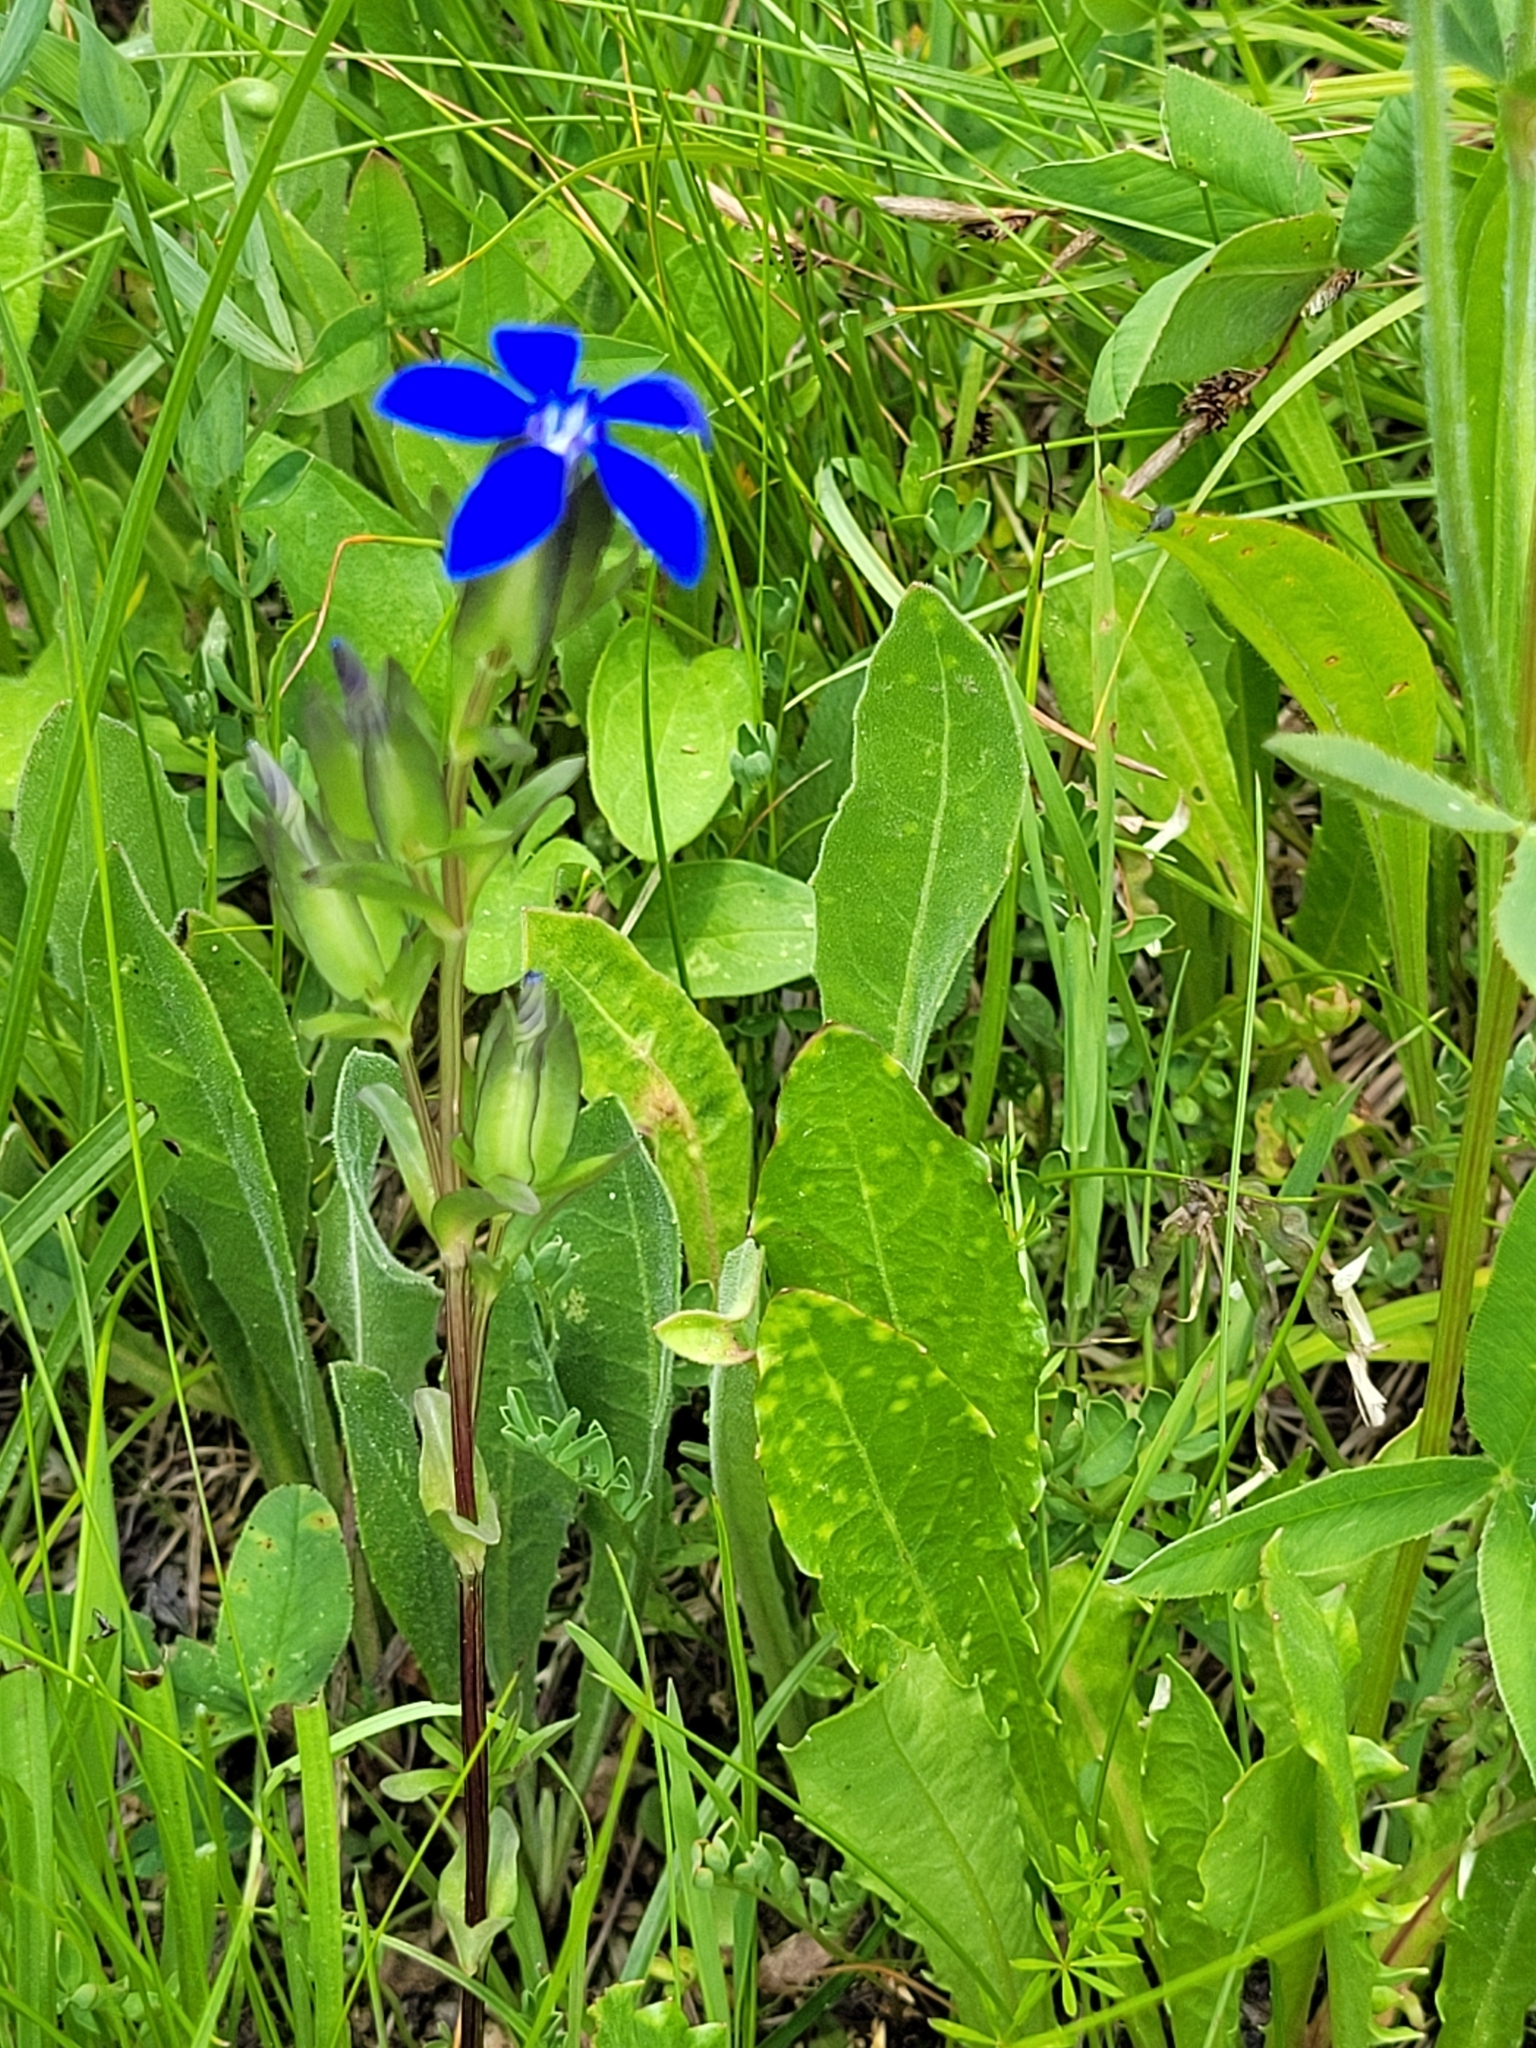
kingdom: Plantae
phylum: Tracheophyta
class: Magnoliopsida
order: Gentianales
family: Gentianaceae
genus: Gentiana
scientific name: Gentiana utriculosa
